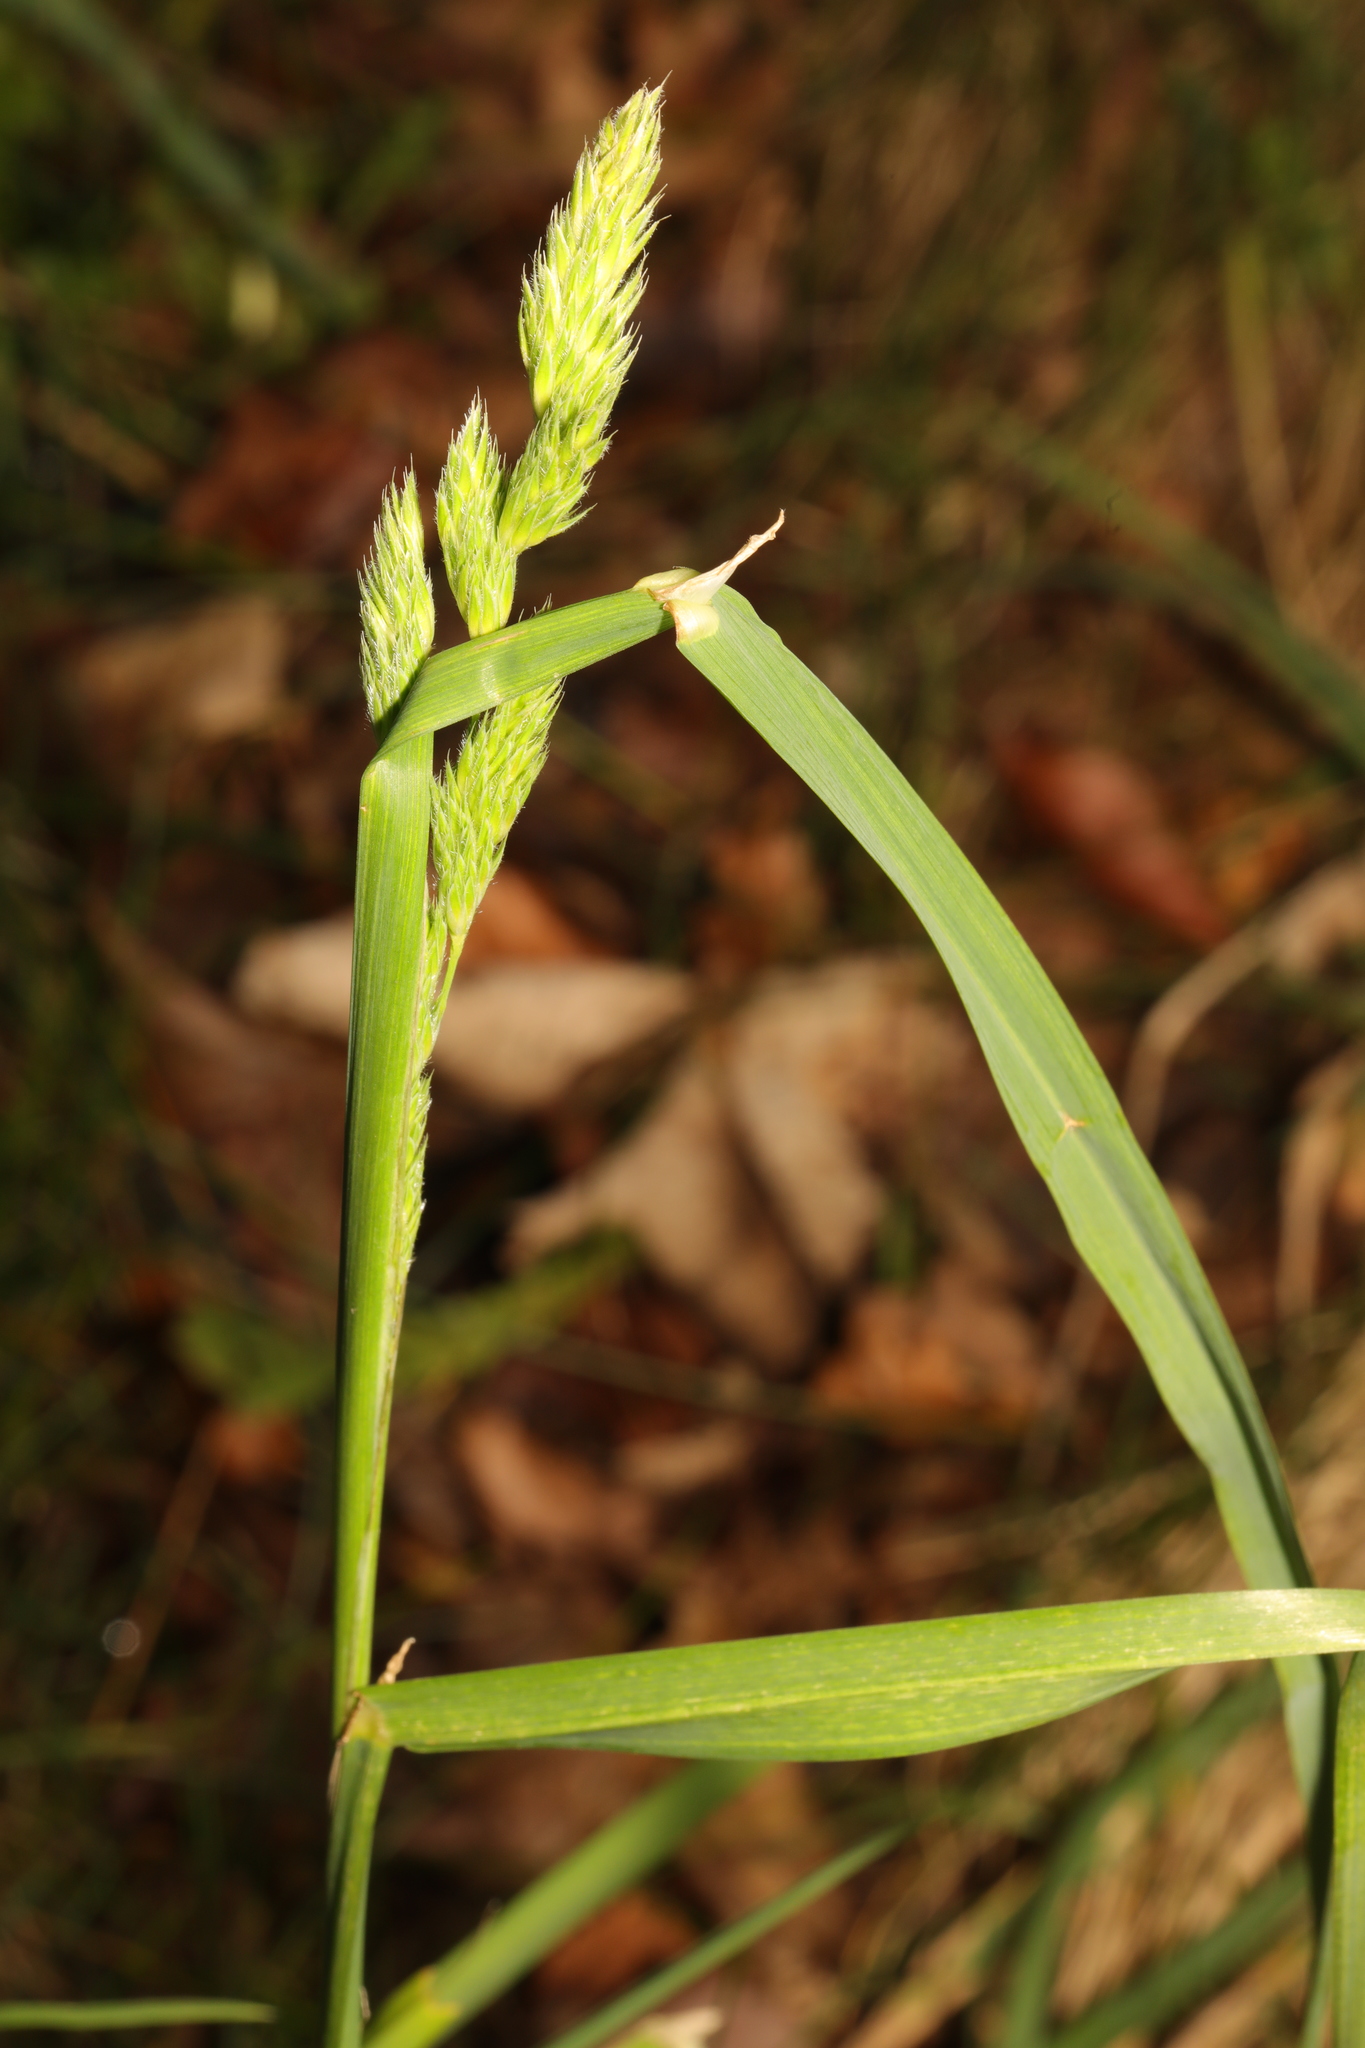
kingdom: Plantae
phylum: Tracheophyta
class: Liliopsida
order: Poales
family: Poaceae
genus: Dactylis
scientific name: Dactylis glomerata
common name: Orchardgrass
